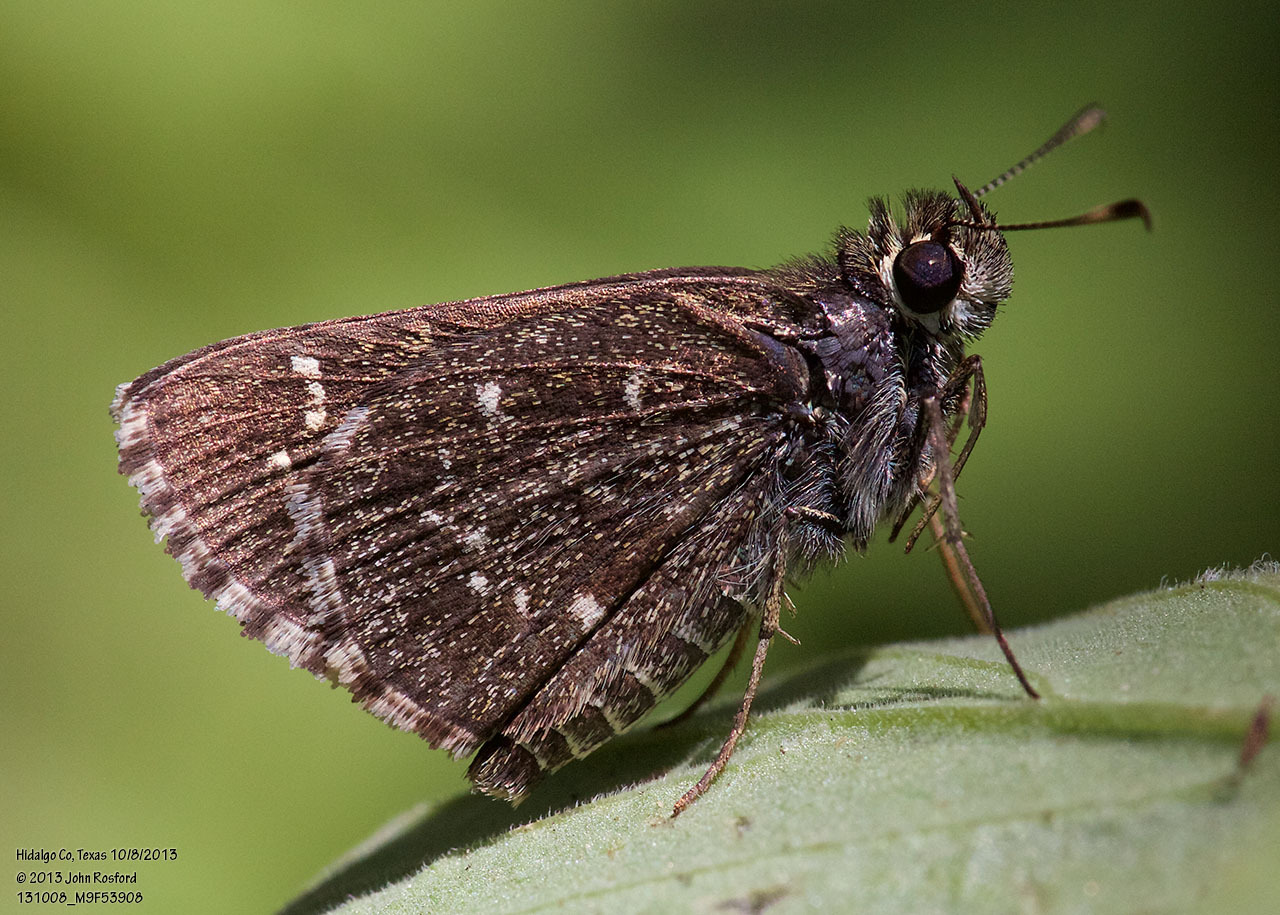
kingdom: Animalia
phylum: Arthropoda
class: Insecta
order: Lepidoptera
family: Hesperiidae
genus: Mastor
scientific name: Mastor celia
